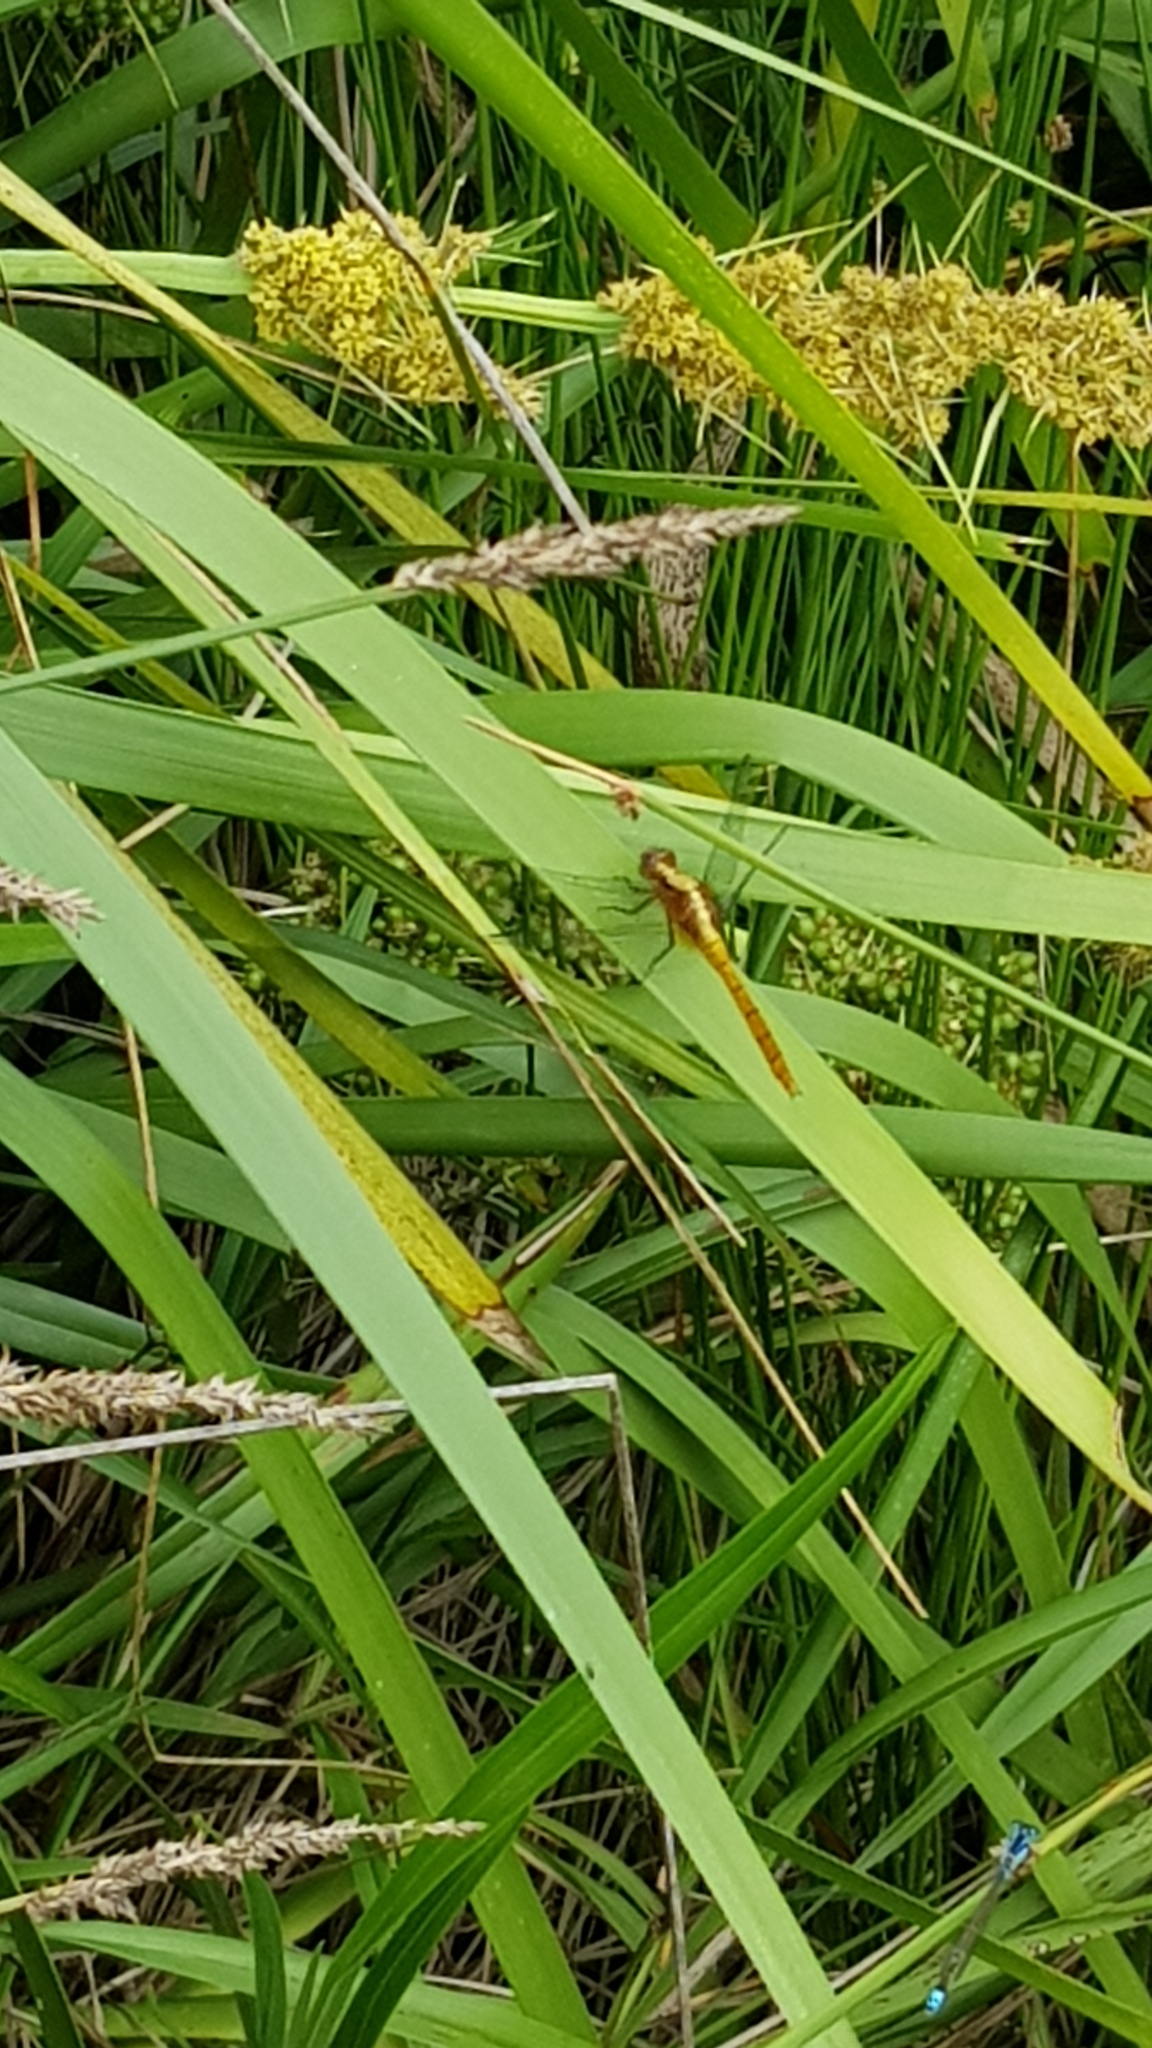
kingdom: Animalia
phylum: Arthropoda
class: Insecta
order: Odonata
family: Libellulidae
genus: Orthetrum
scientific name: Orthetrum villosovittatum
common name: Firery skimmer
